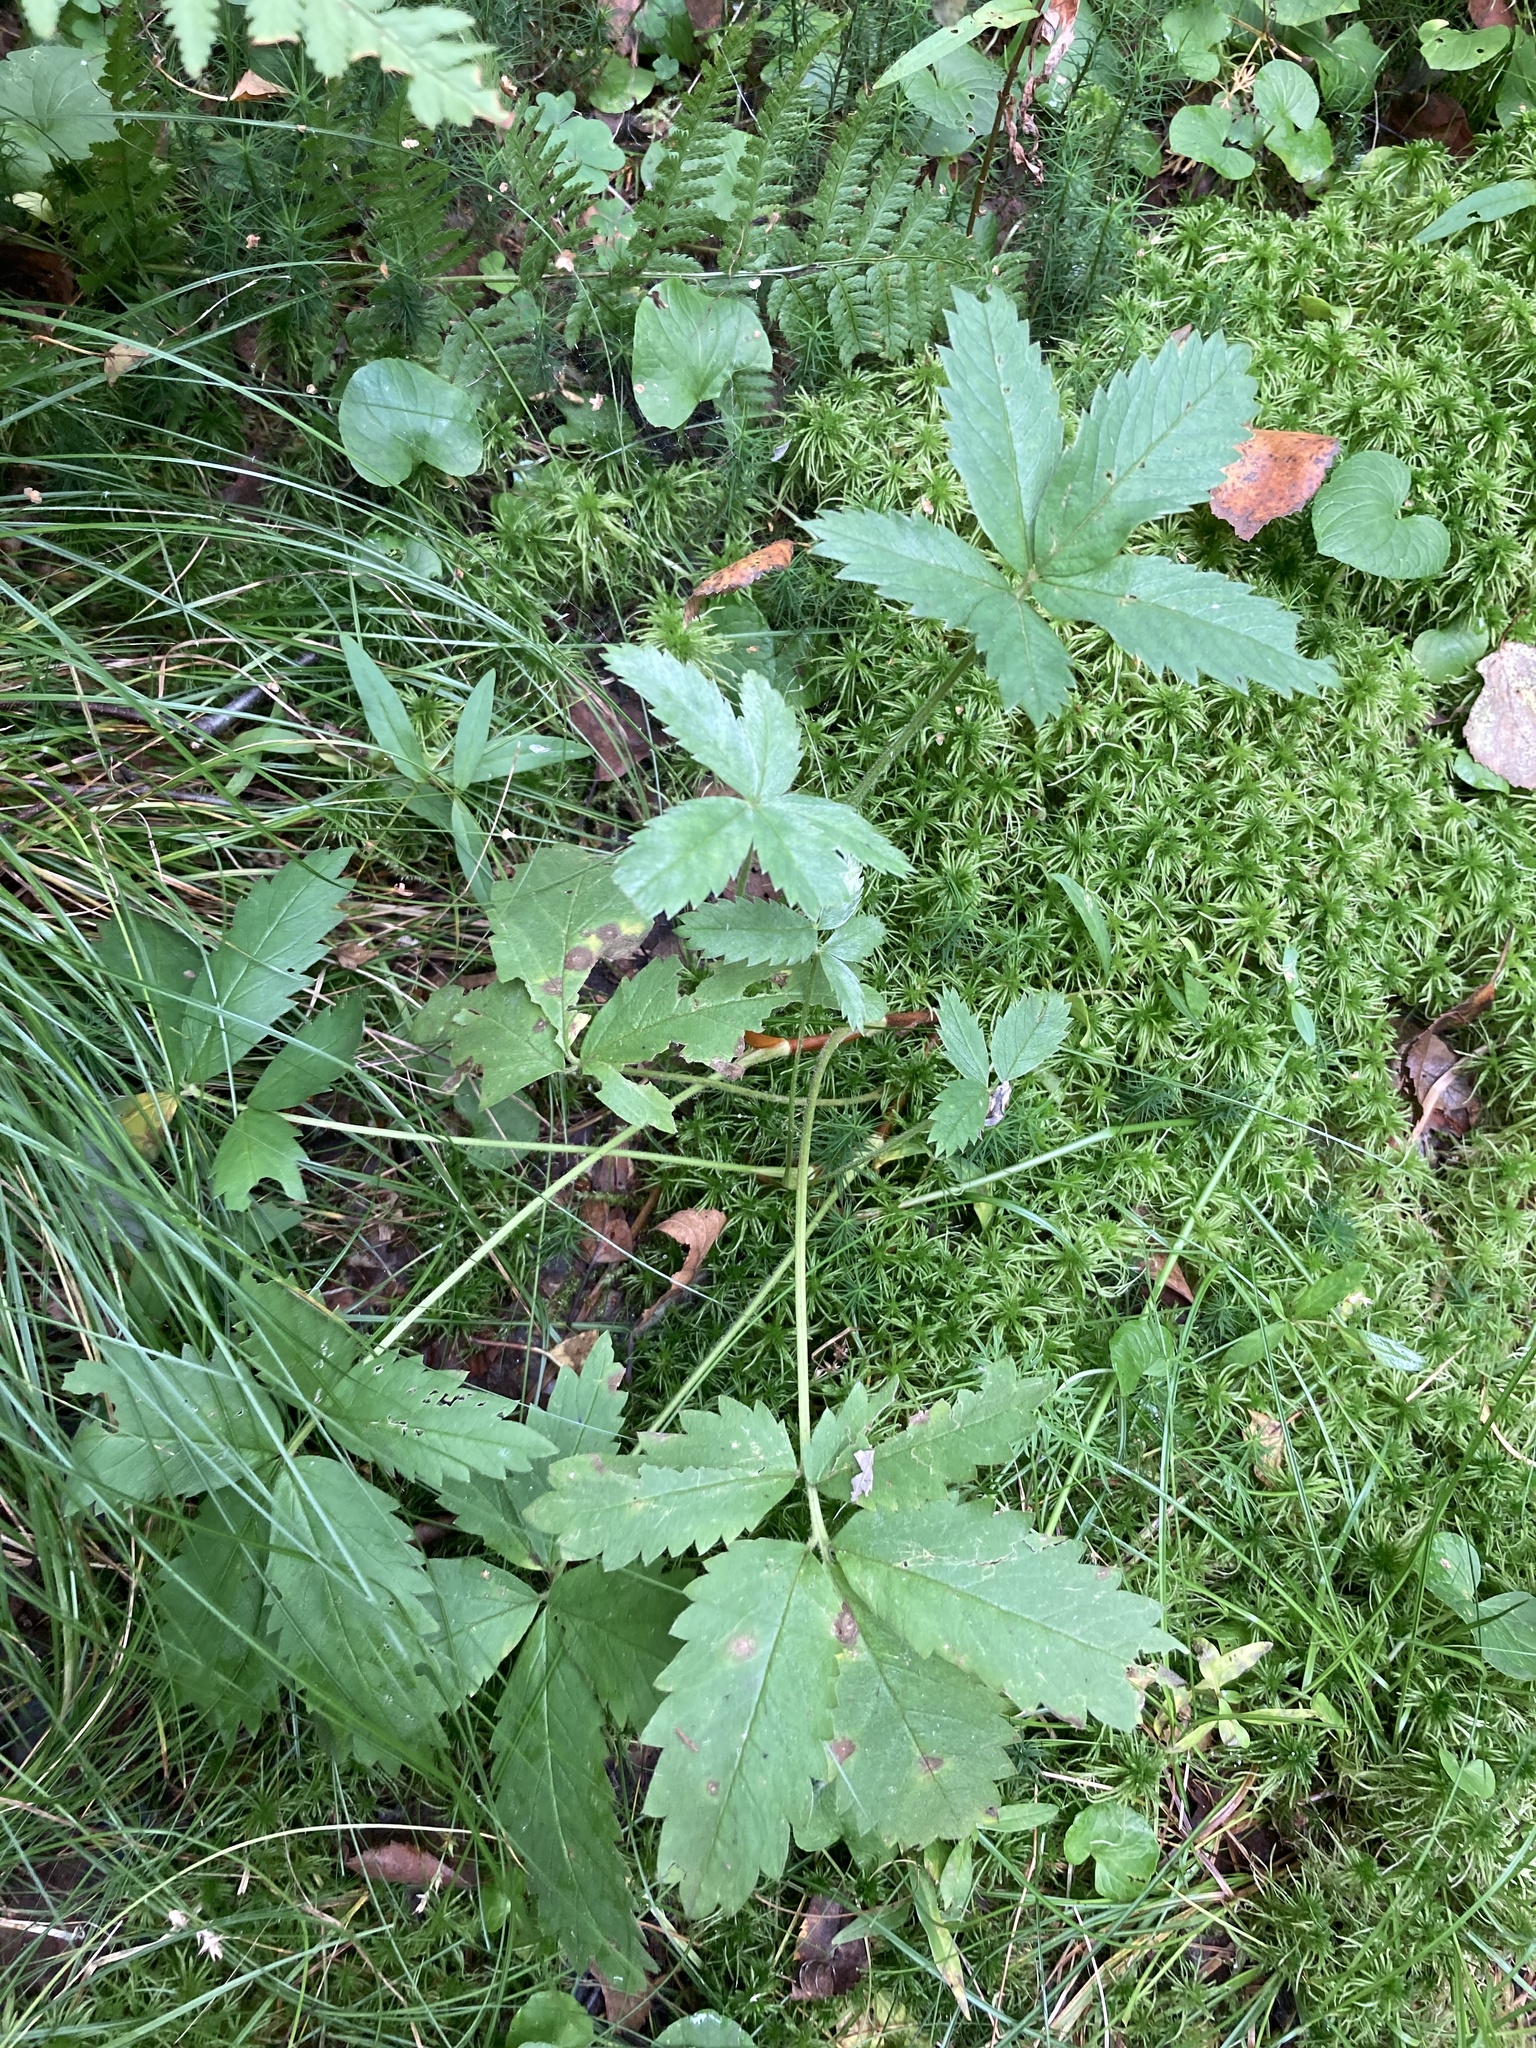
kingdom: Plantae
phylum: Tracheophyta
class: Magnoliopsida
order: Rosales
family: Rosaceae
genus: Comarum
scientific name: Comarum palustre
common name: Marsh cinquefoil
